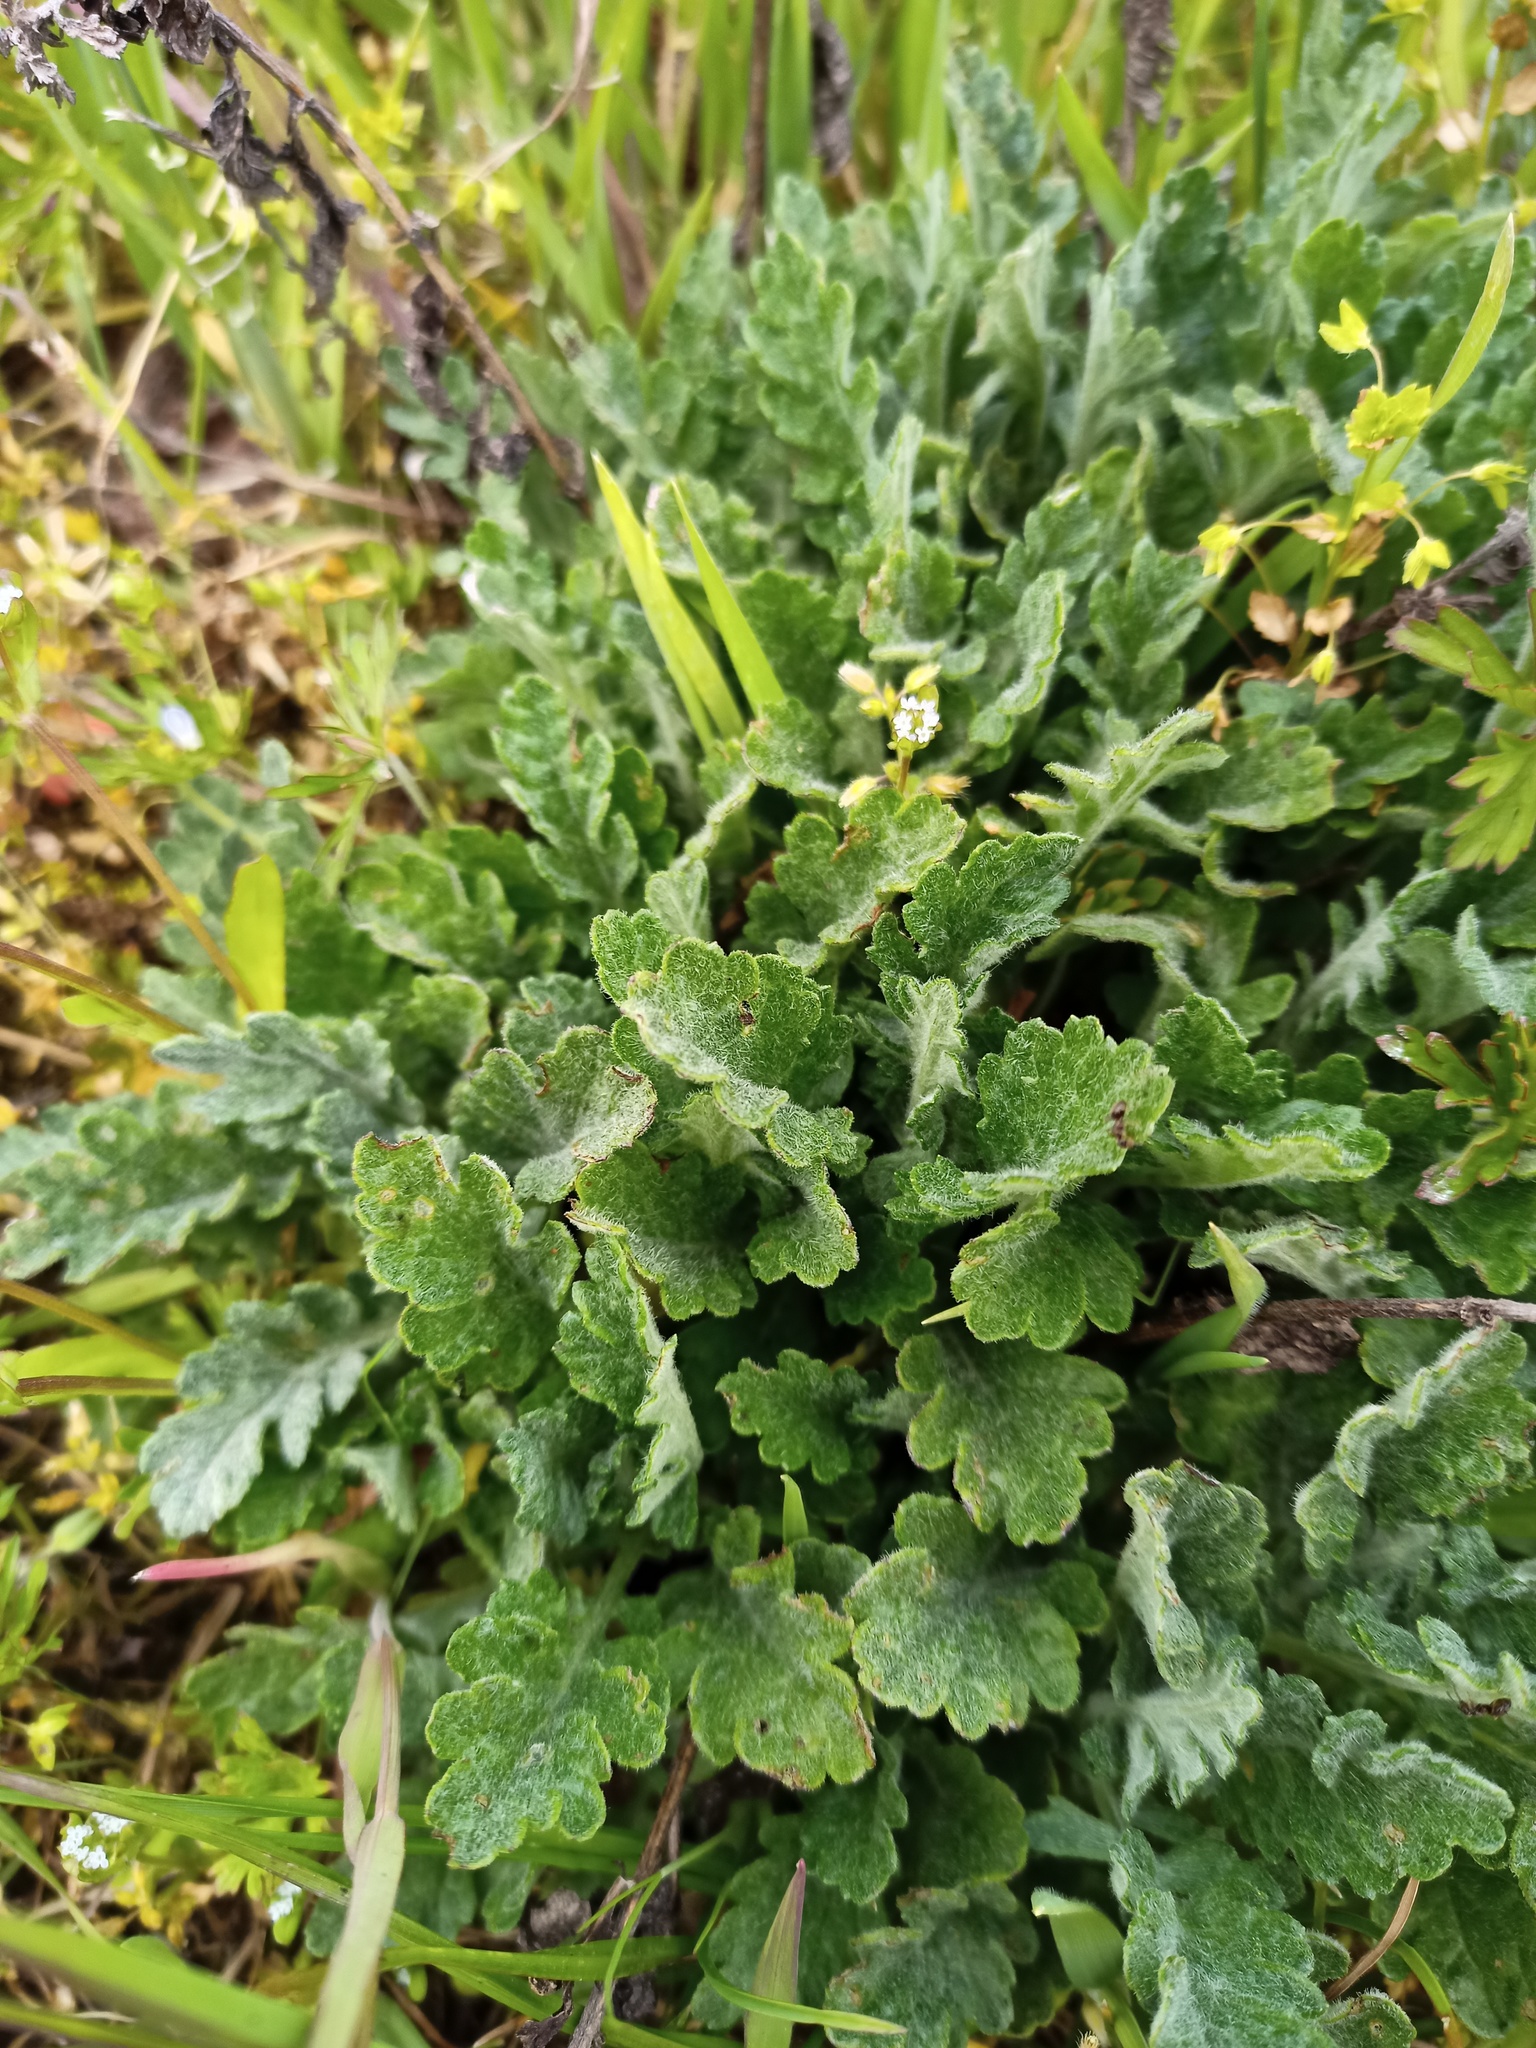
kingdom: Plantae
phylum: Tracheophyta
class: Magnoliopsida
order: Asterales
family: Asteraceae
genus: Jacobaea
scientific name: Jacobaea erucifolia
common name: Hoary ragwort
